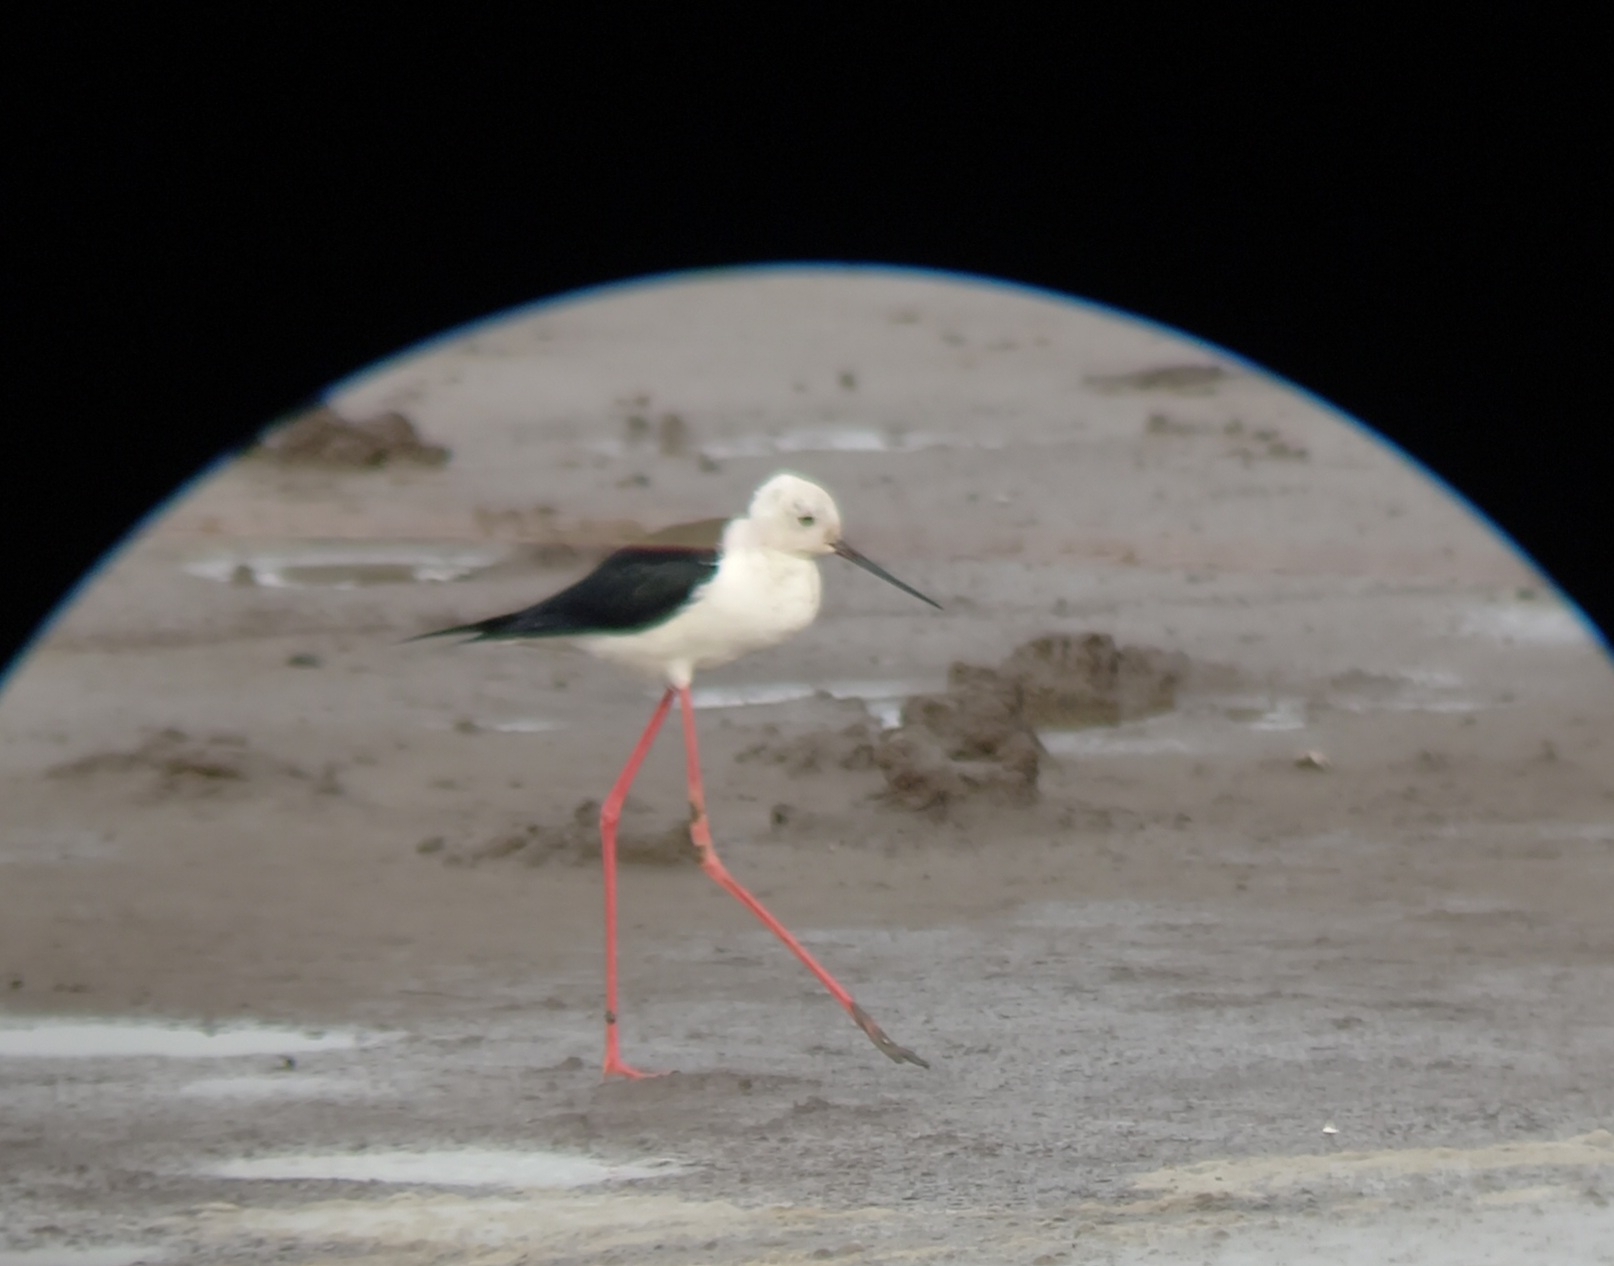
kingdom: Animalia
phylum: Chordata
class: Aves
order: Charadriiformes
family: Recurvirostridae
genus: Himantopus
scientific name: Himantopus himantopus
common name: Black-winged stilt
